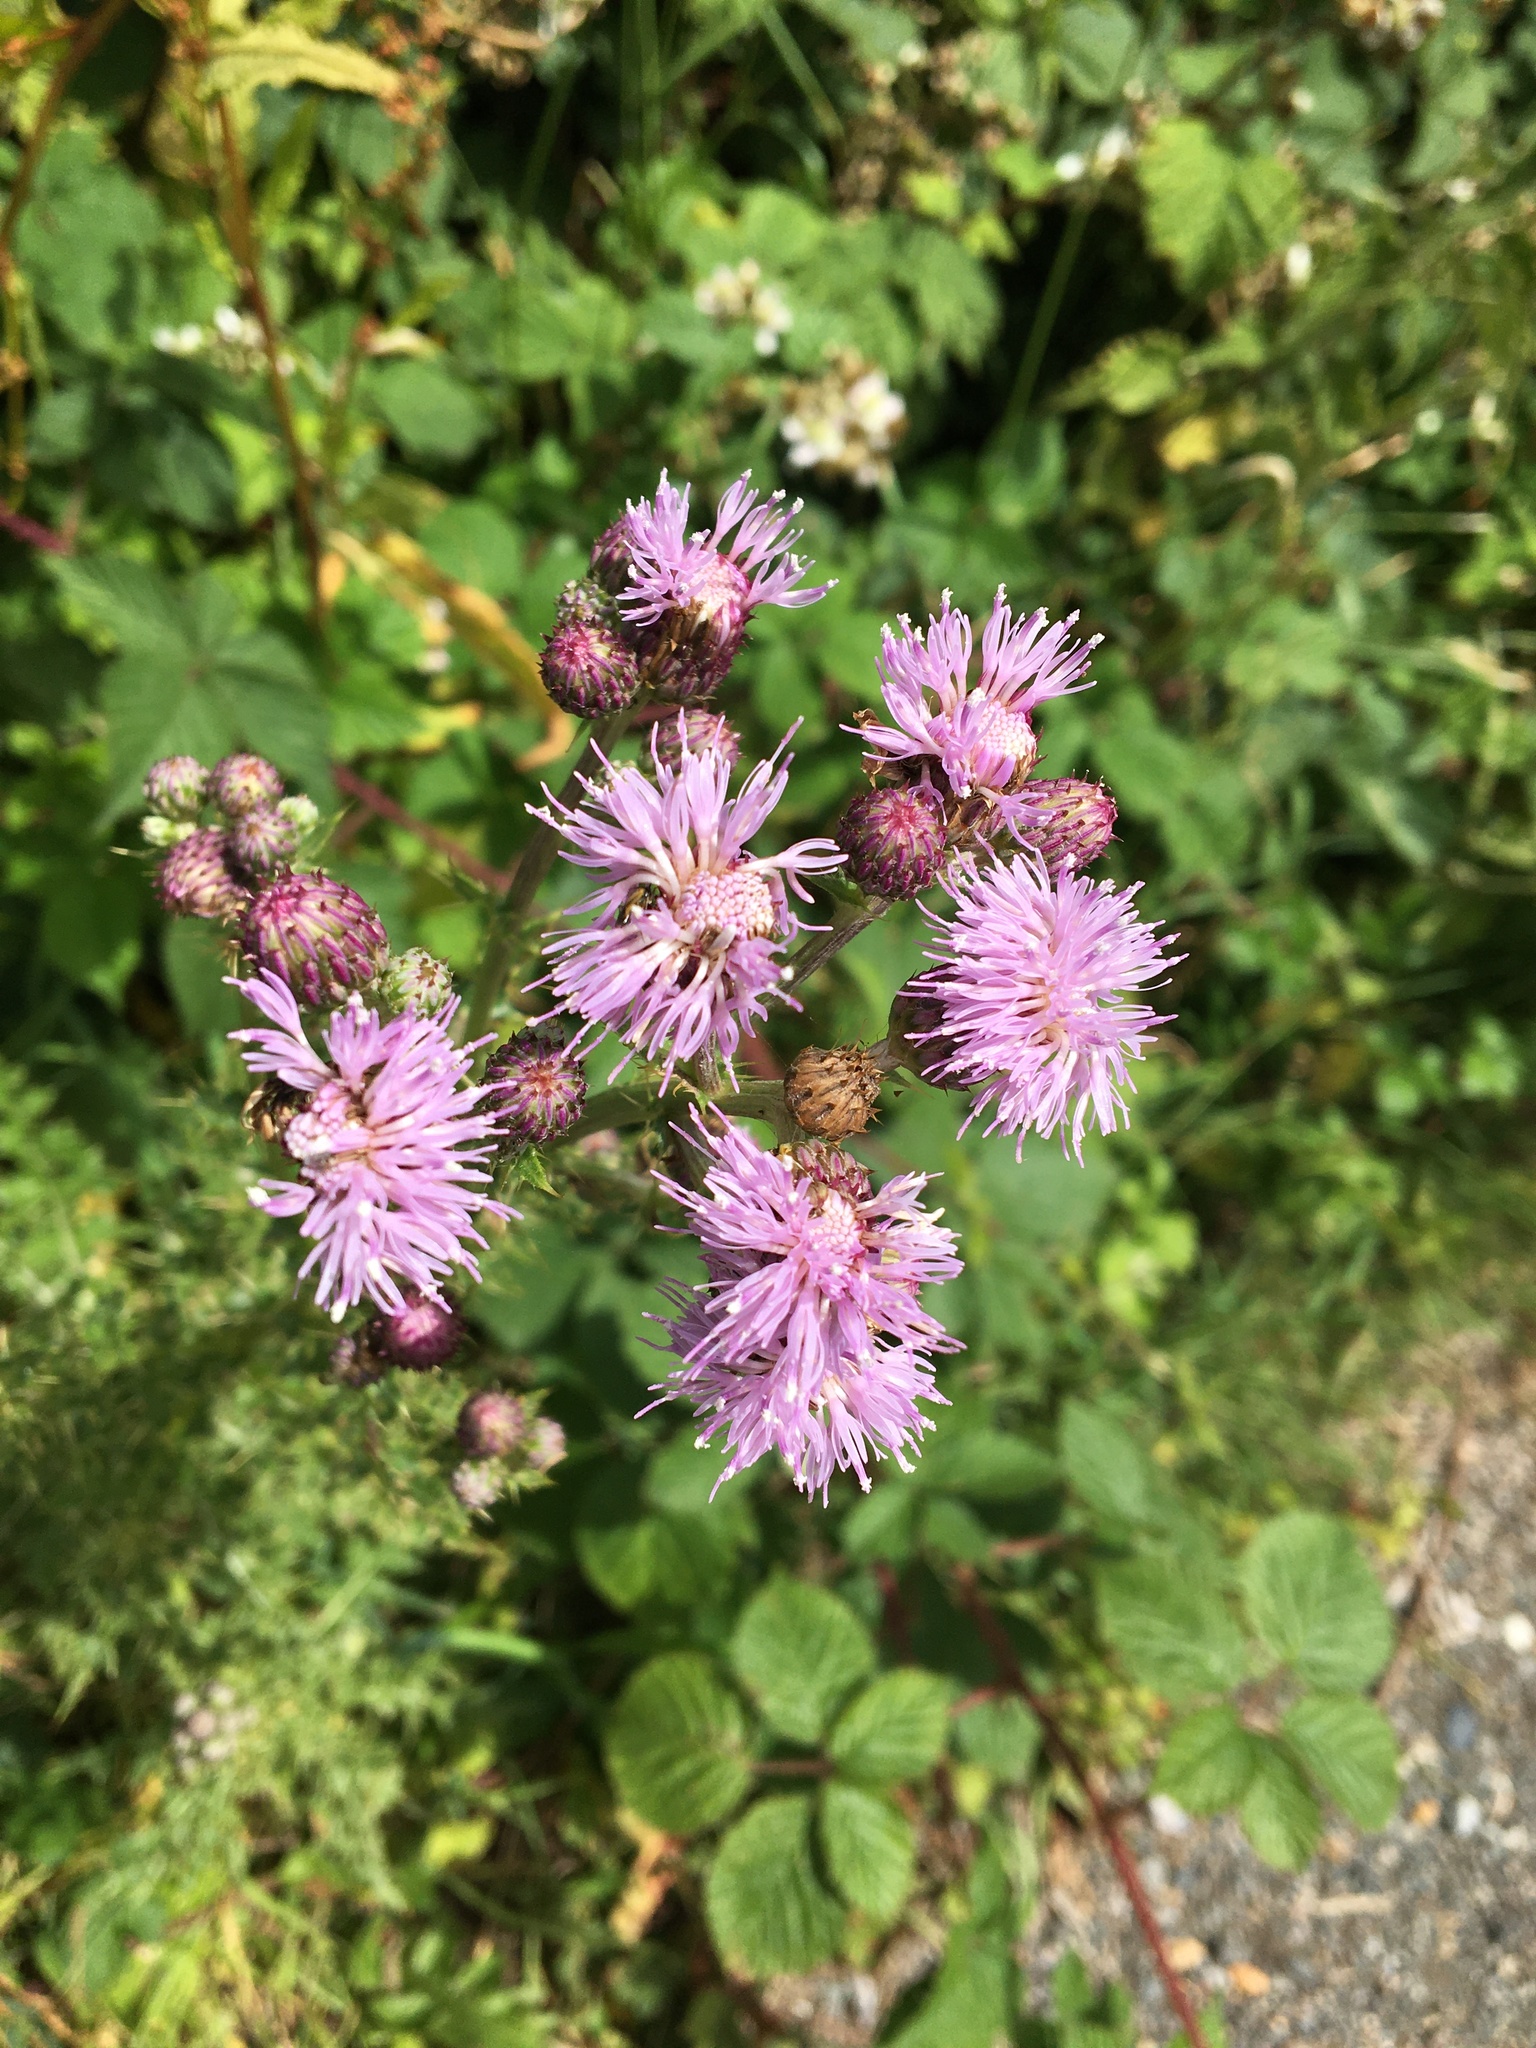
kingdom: Plantae
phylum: Tracheophyta
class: Magnoliopsida
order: Asterales
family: Asteraceae
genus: Cirsium
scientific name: Cirsium arvense
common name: Creeping thistle
